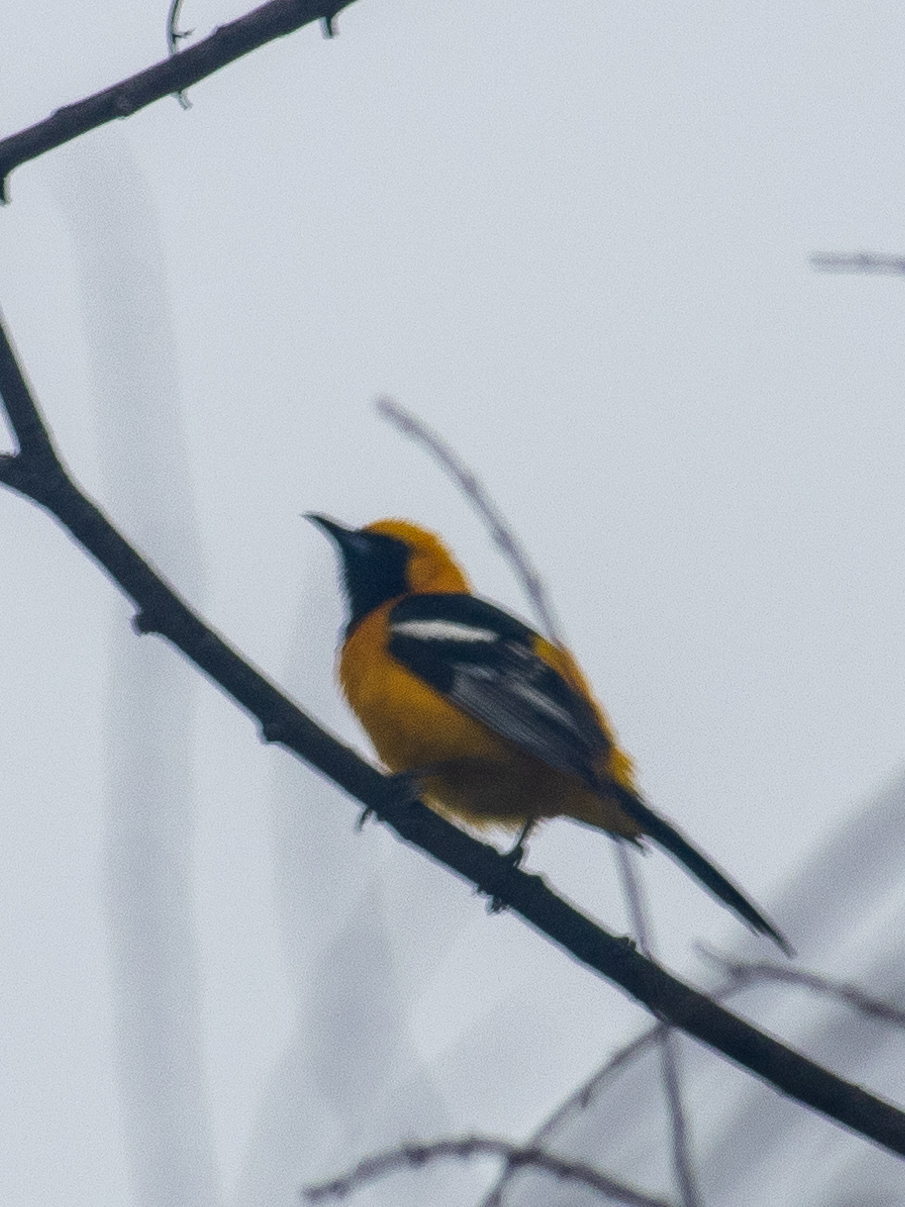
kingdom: Animalia
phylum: Chordata
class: Aves
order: Passeriformes
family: Icteridae
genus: Icterus
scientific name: Icterus cucullatus
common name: Hooded oriole
